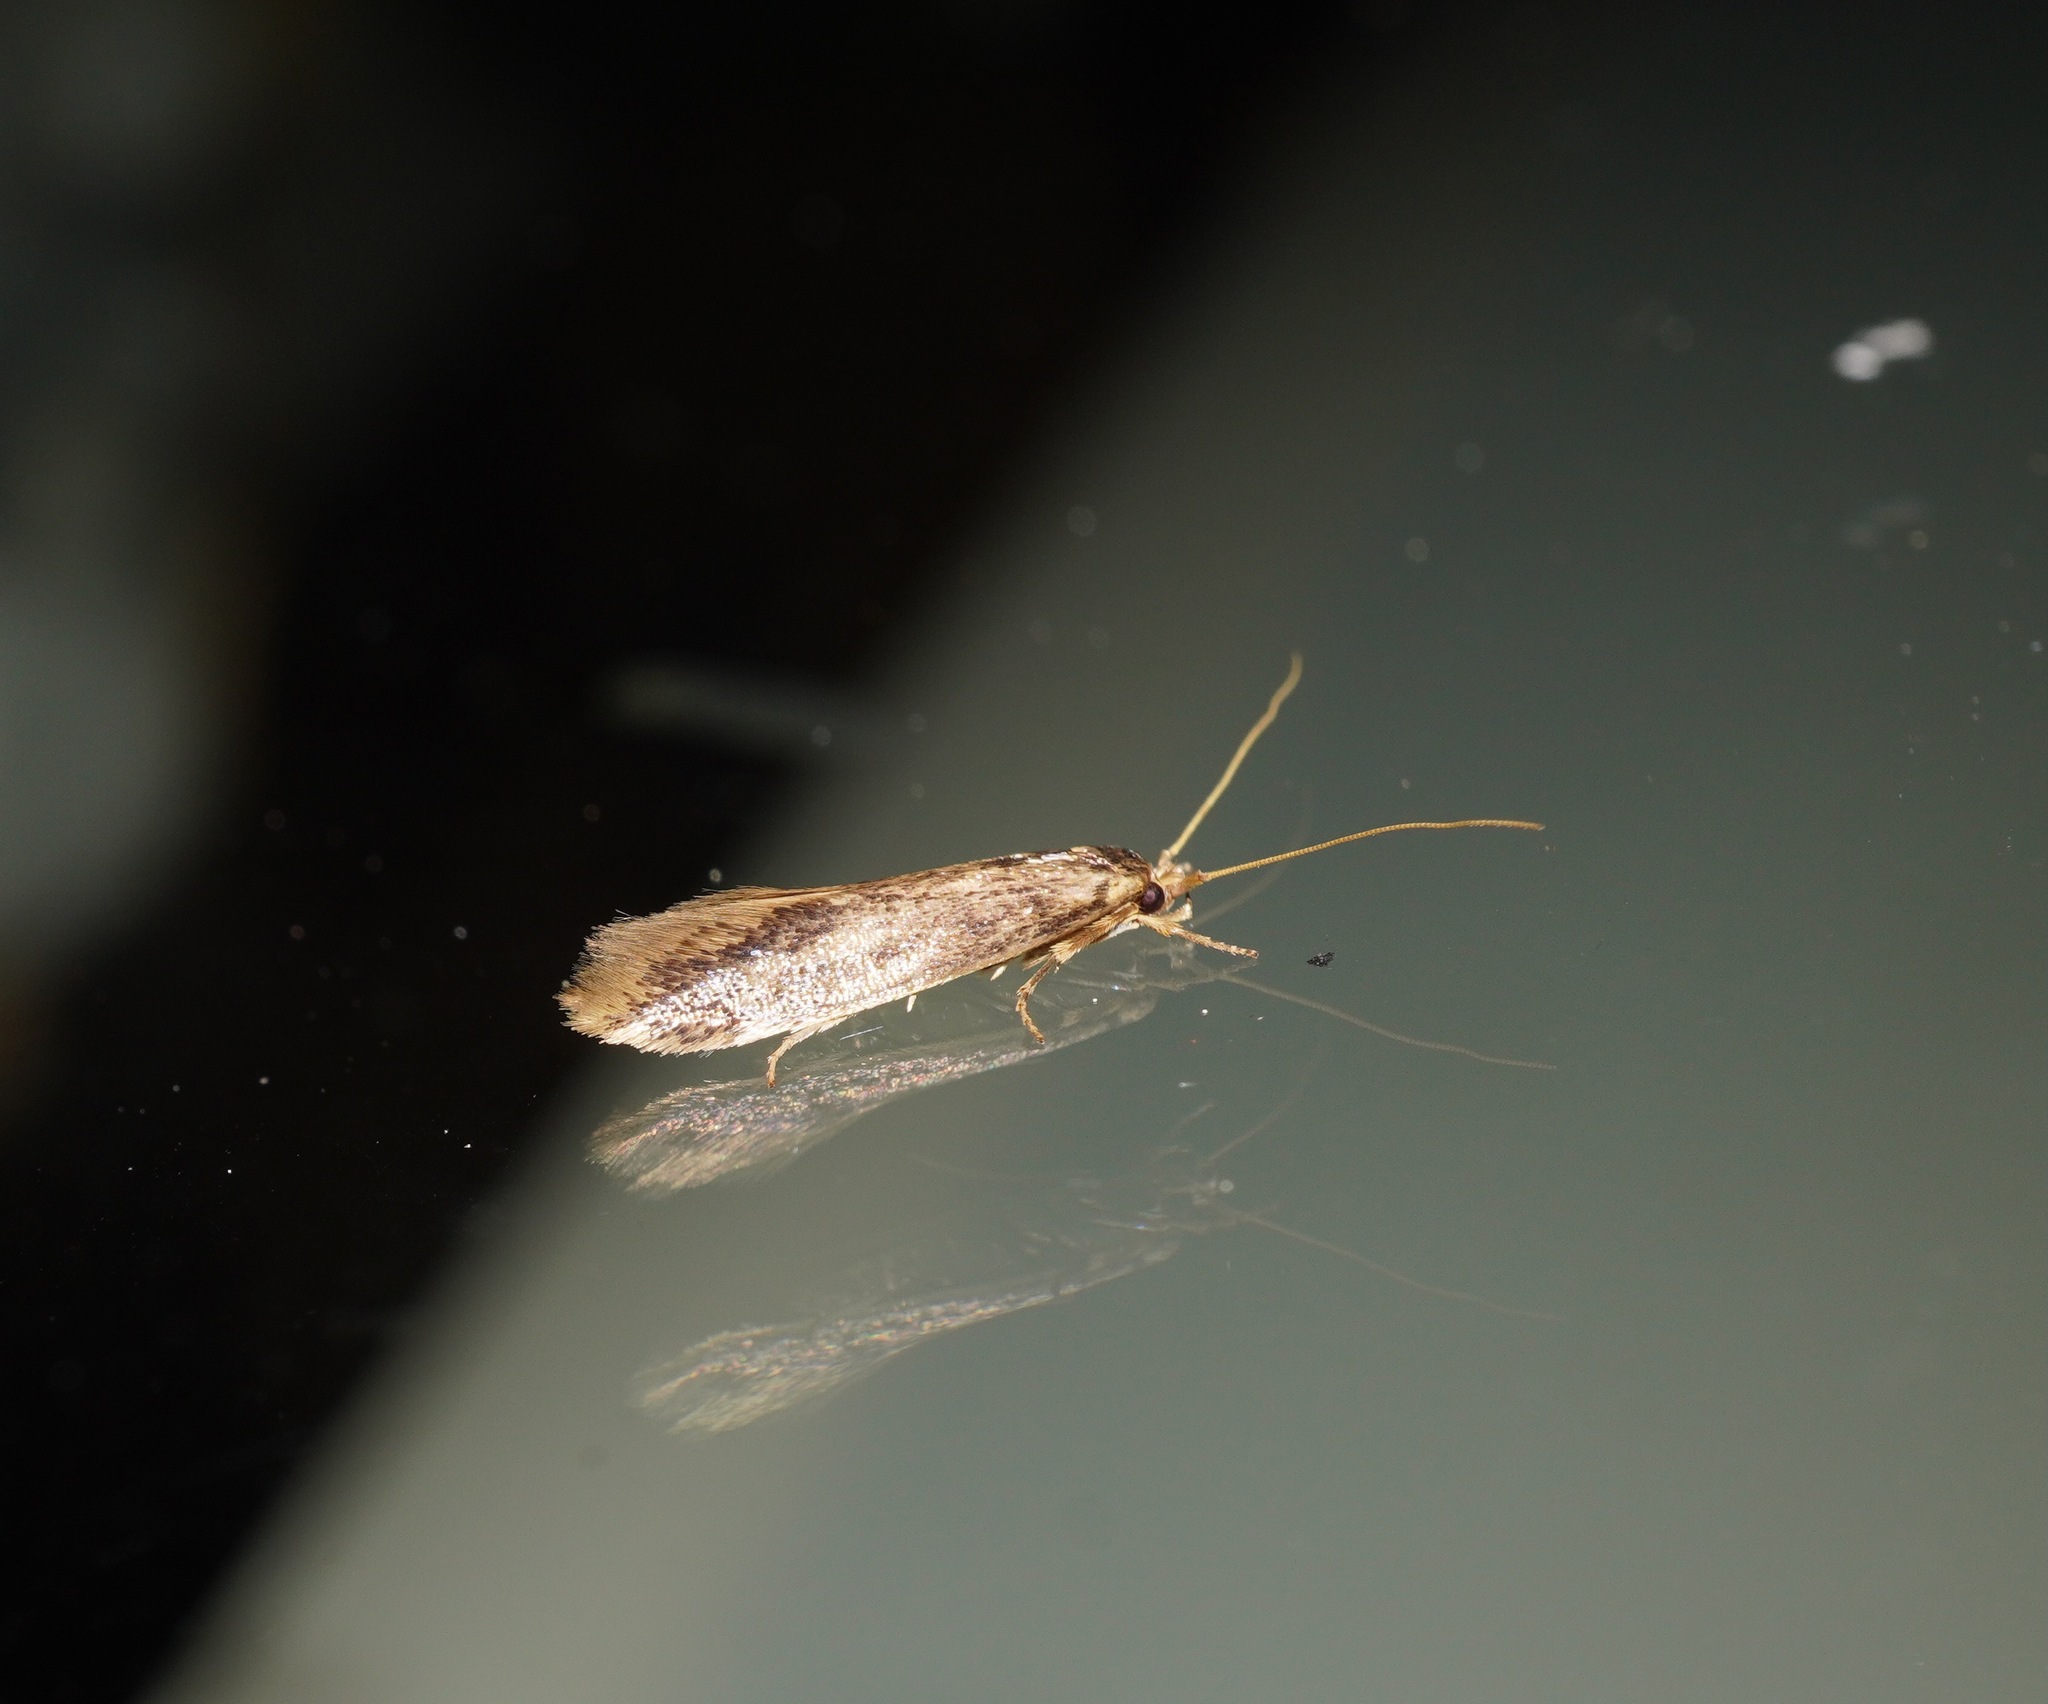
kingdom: Animalia
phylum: Arthropoda
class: Insecta
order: Lepidoptera
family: Tineidae
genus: Opogona
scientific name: Opogona omoscopa
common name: Moth
